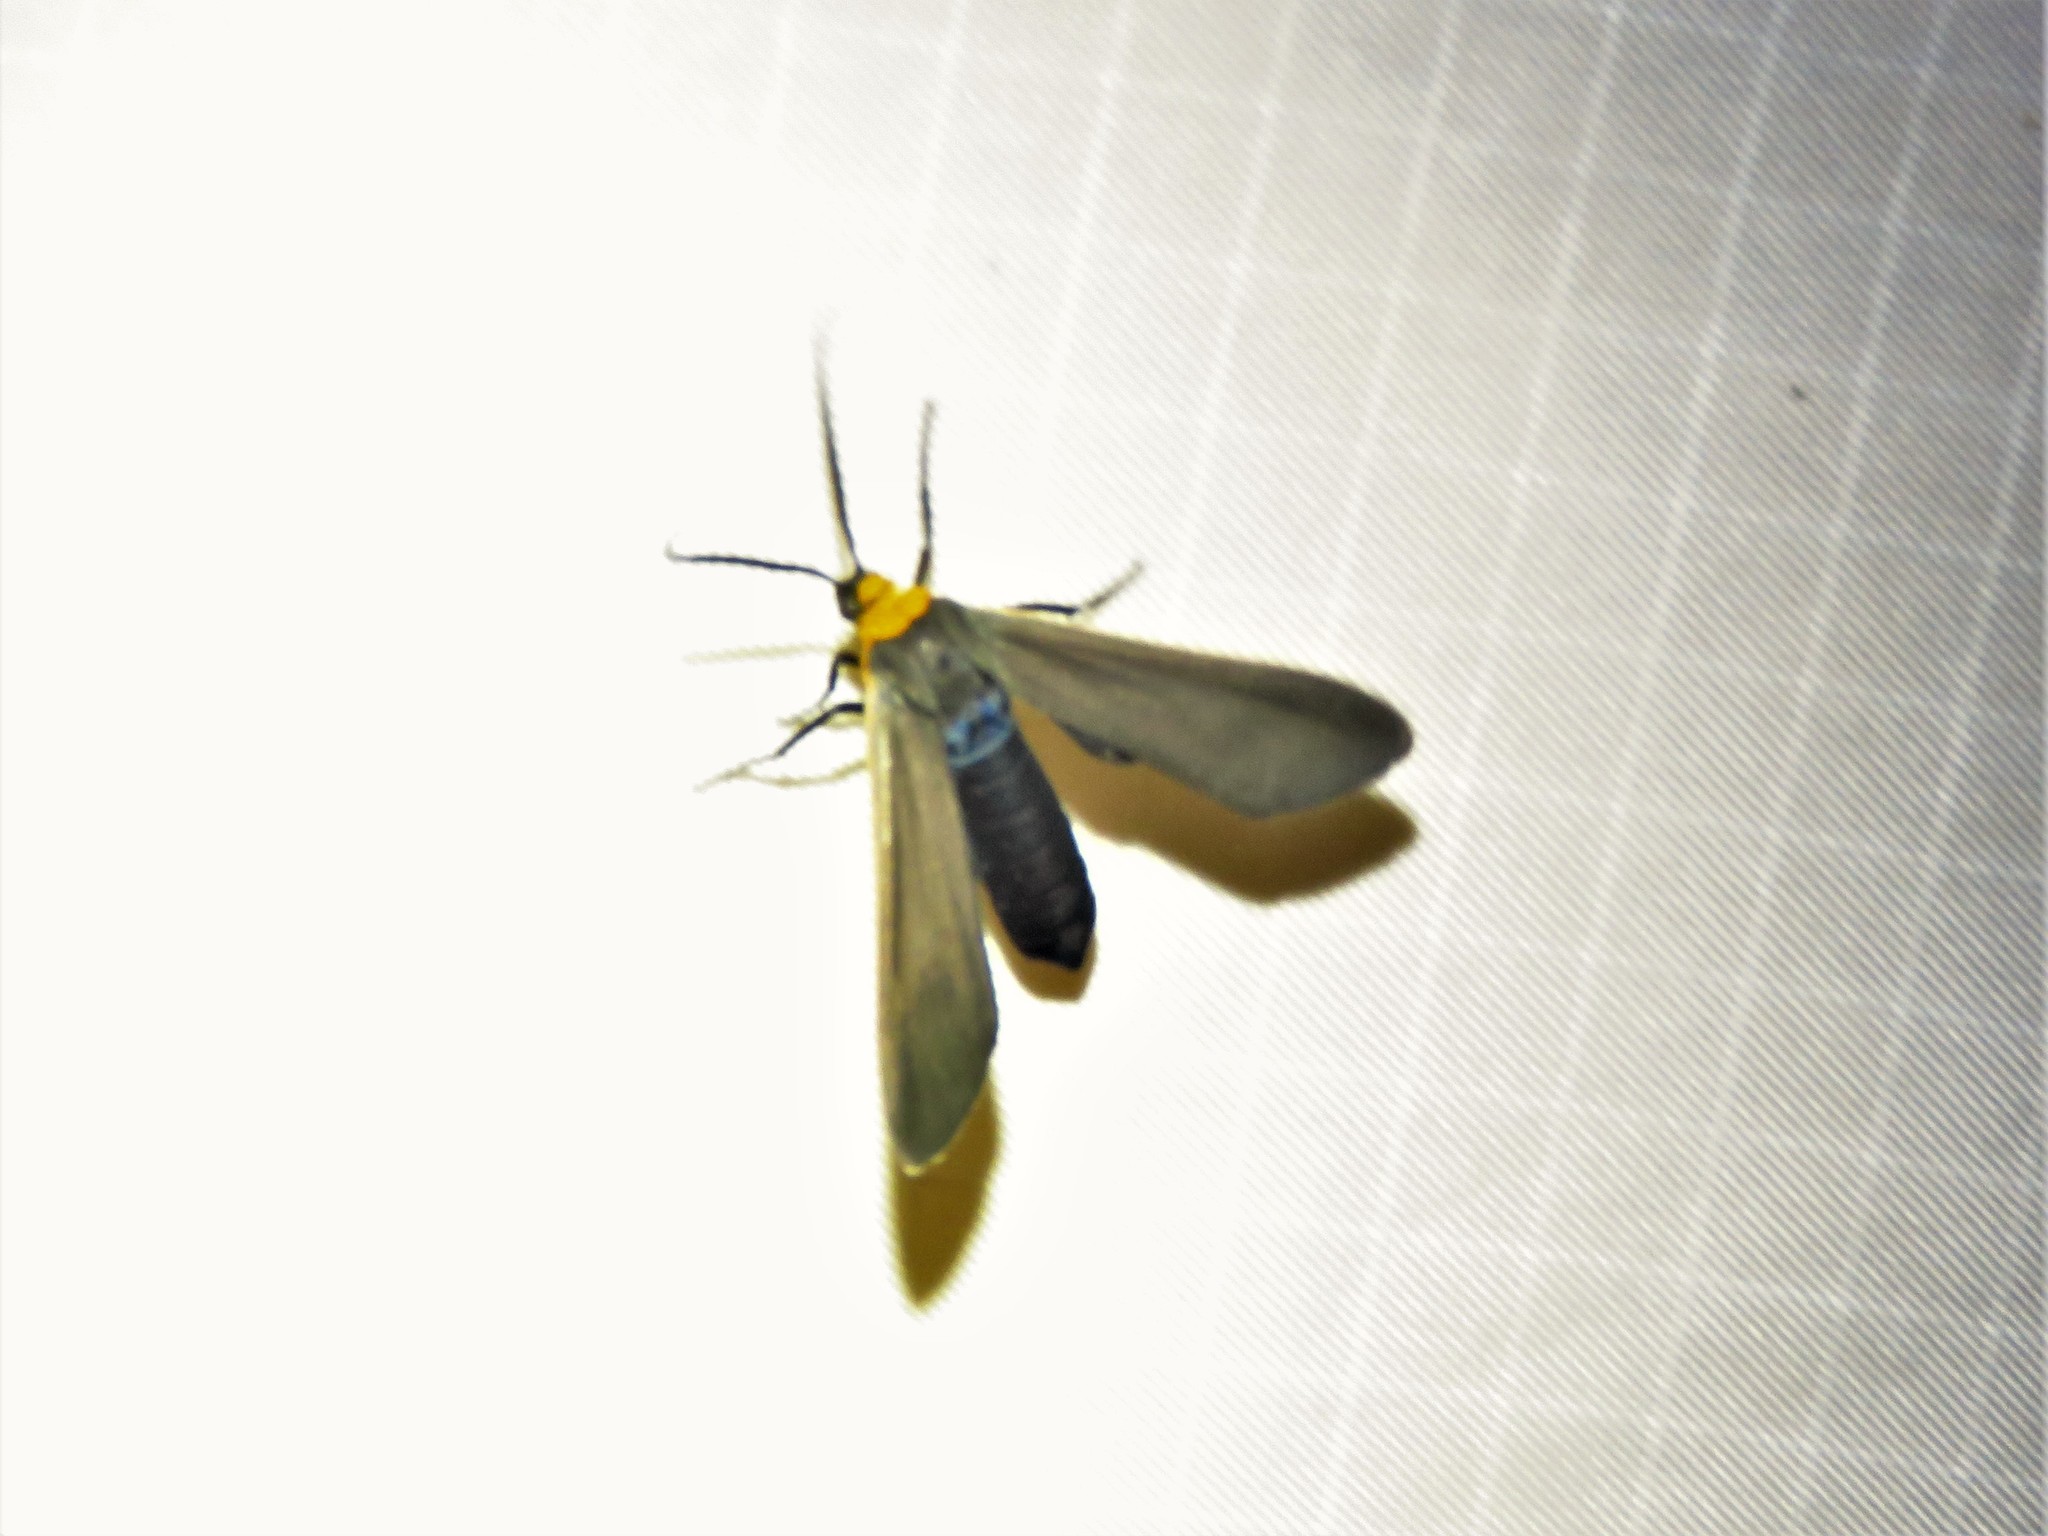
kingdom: Animalia
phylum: Arthropoda
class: Insecta
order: Lepidoptera
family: Erebidae
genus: Cisseps
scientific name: Cisseps fulvicollis
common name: Yellow-collared scape moth
